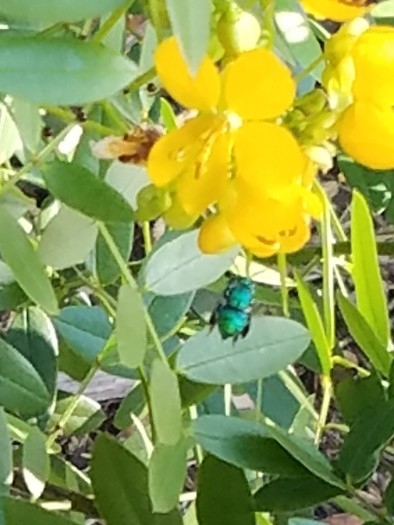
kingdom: Animalia
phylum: Arthropoda
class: Insecta
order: Hymenoptera
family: Apidae
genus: Euglossa
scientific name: Euglossa dilemma
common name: Green orchid bee
